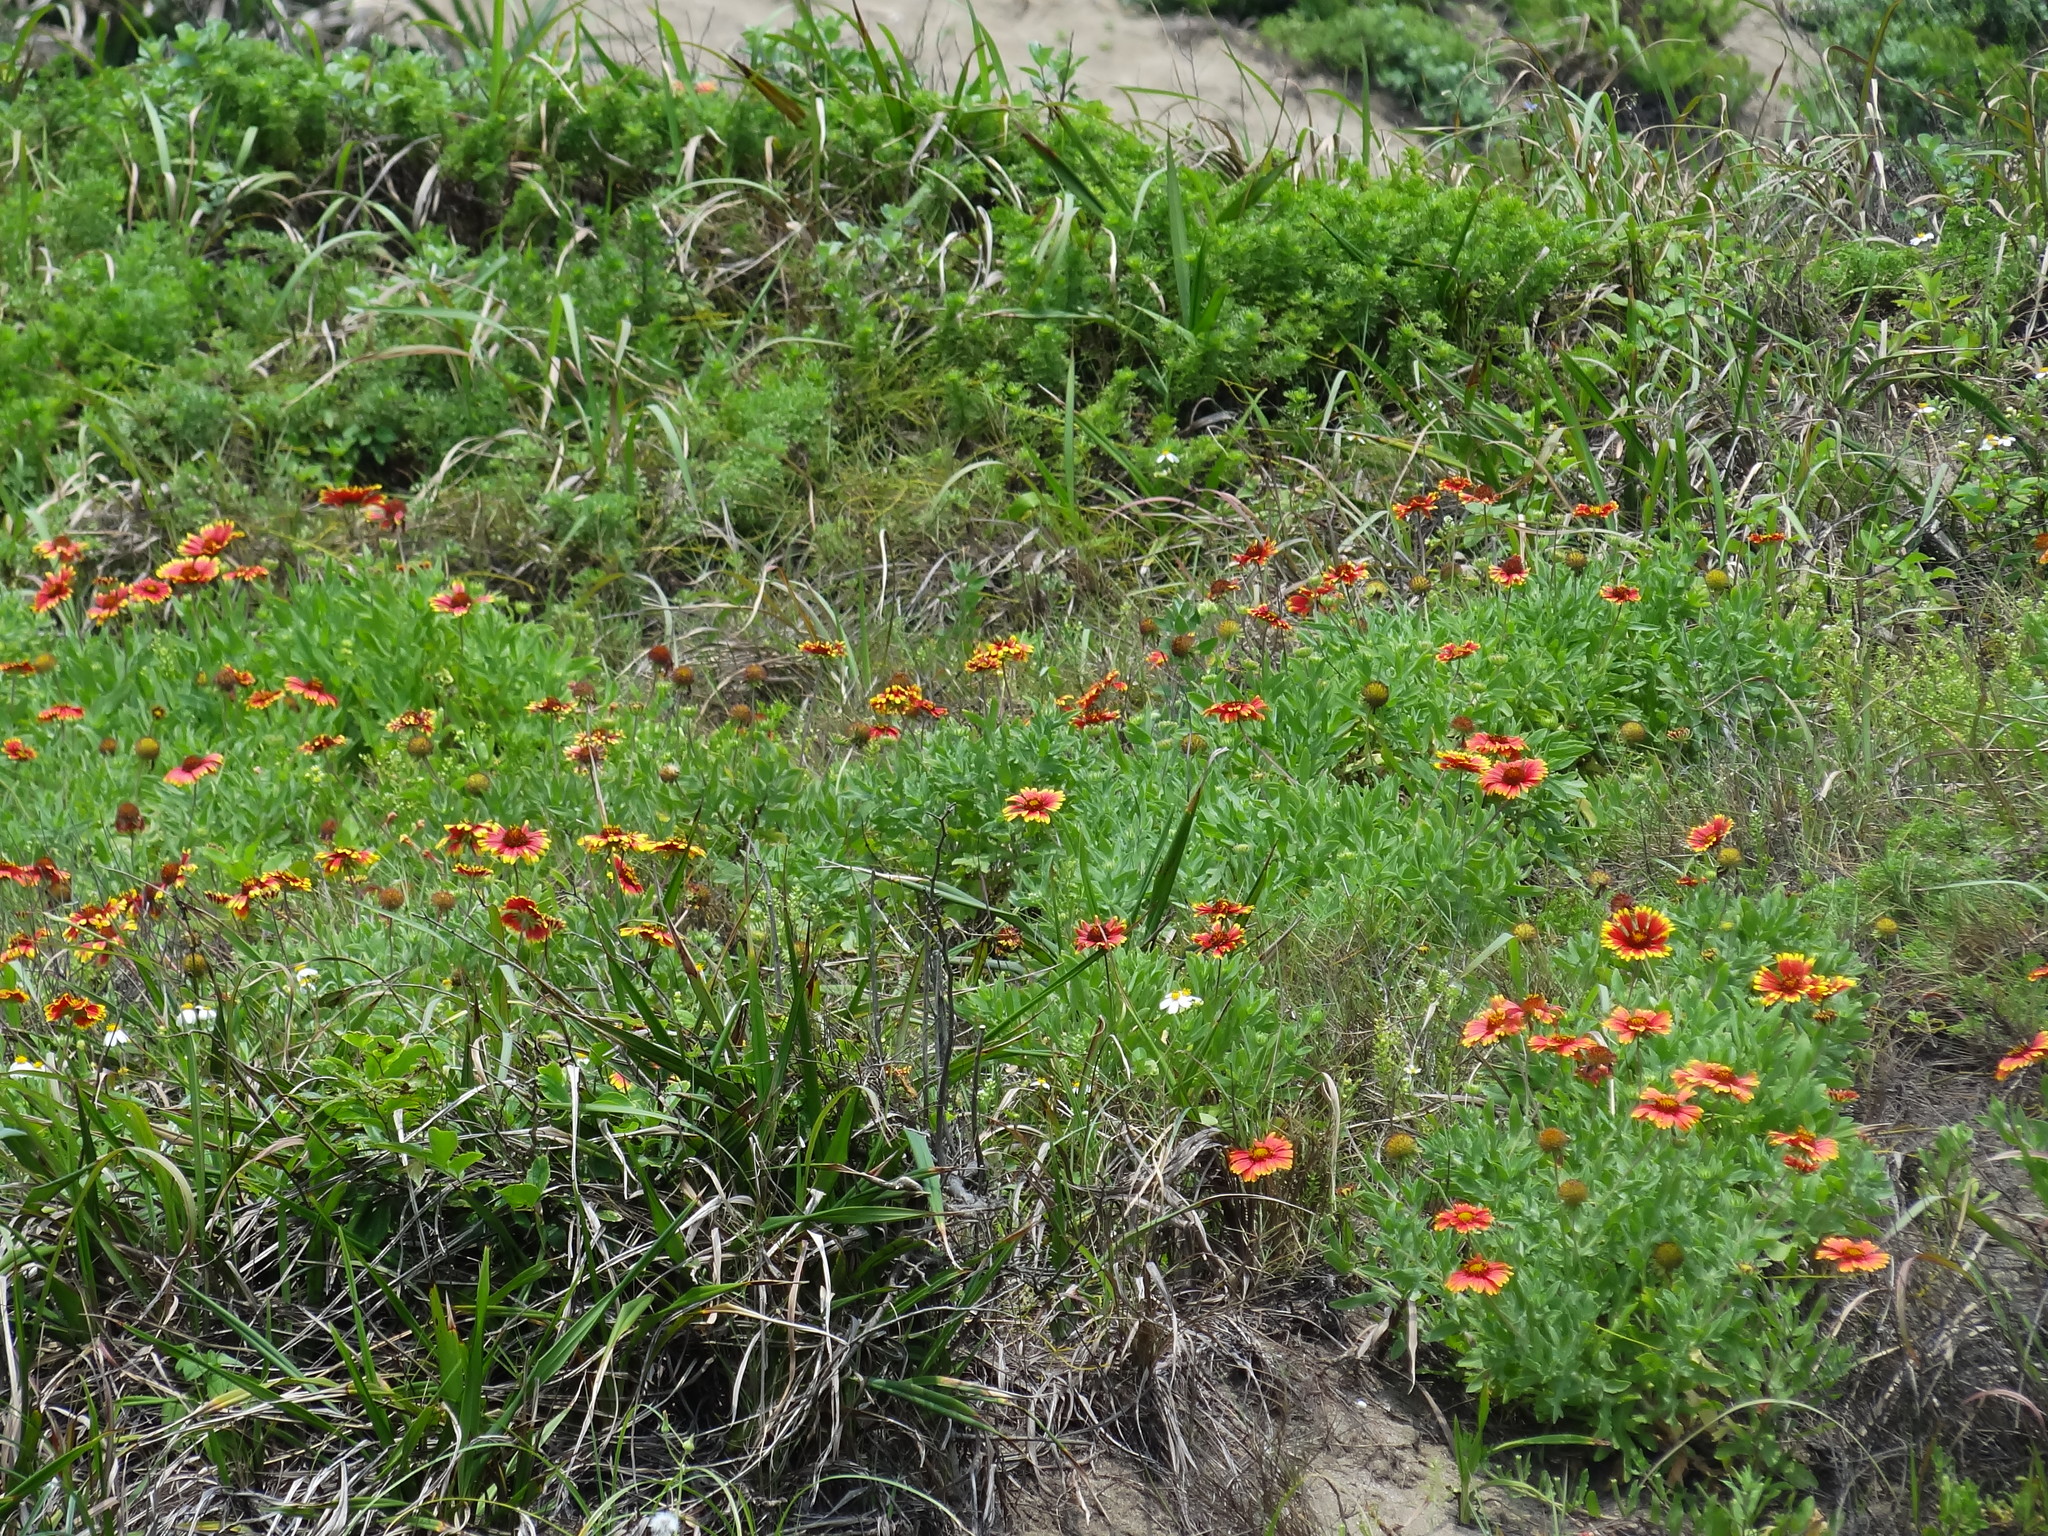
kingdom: Plantae
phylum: Tracheophyta
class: Magnoliopsida
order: Asterales
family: Asteraceae
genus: Gaillardia
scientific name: Gaillardia pulchella
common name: Firewheel
